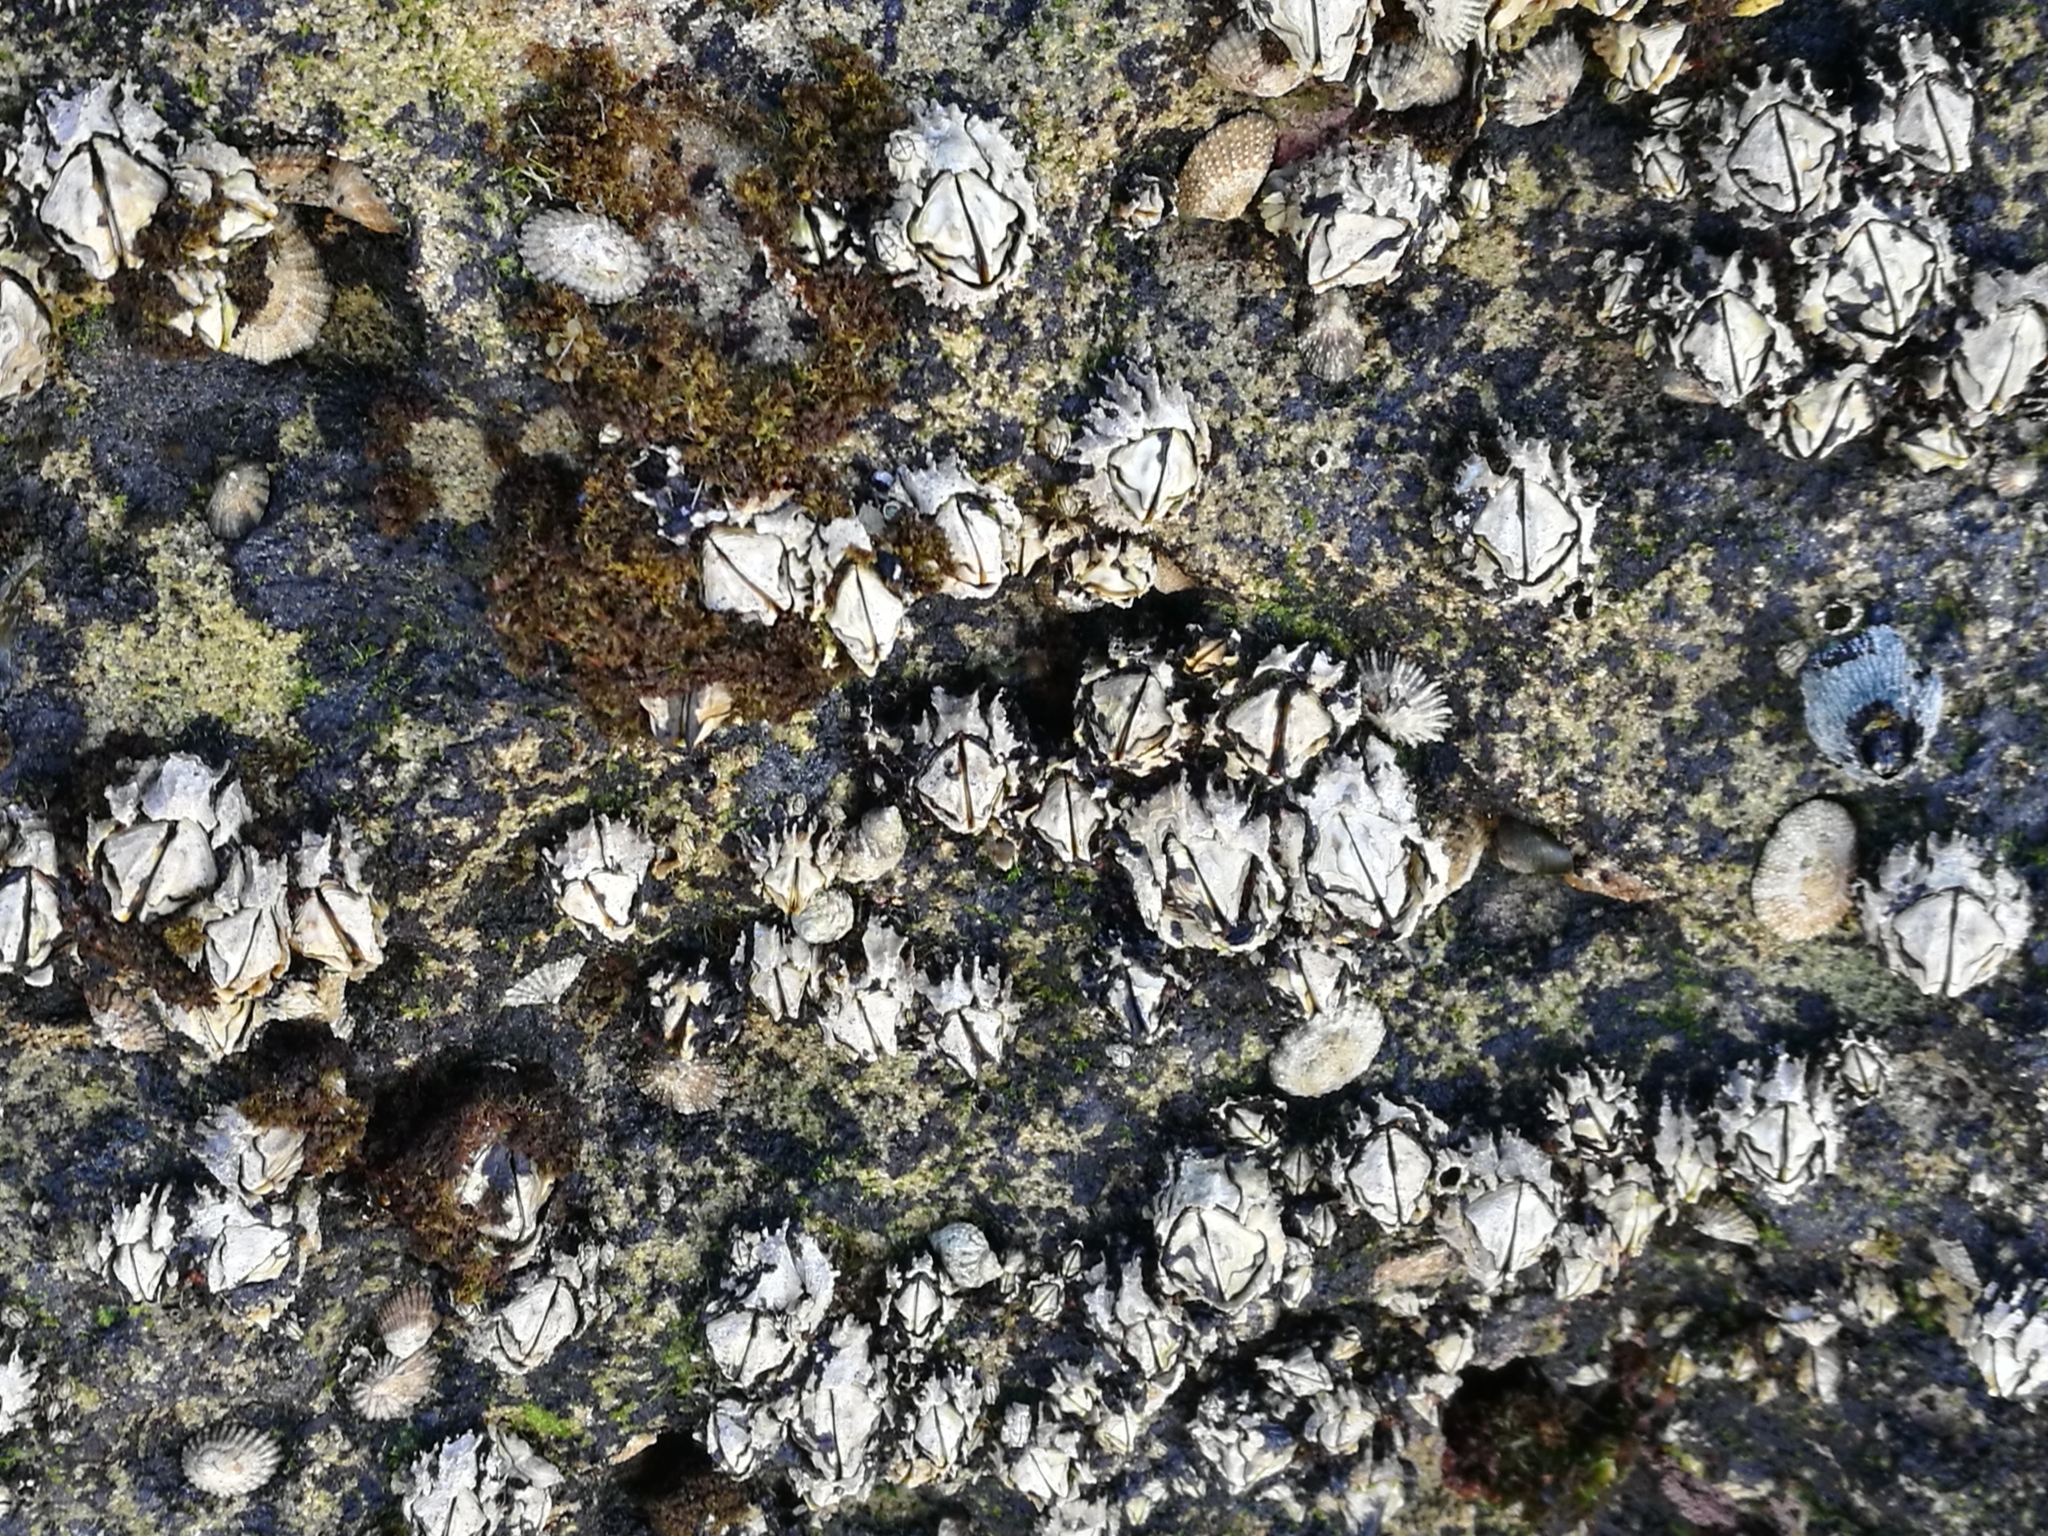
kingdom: Animalia
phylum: Arthropoda
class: Maxillopoda
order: Sessilia
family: Chthamalidae
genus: Octomeris
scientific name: Octomeris angulosa
